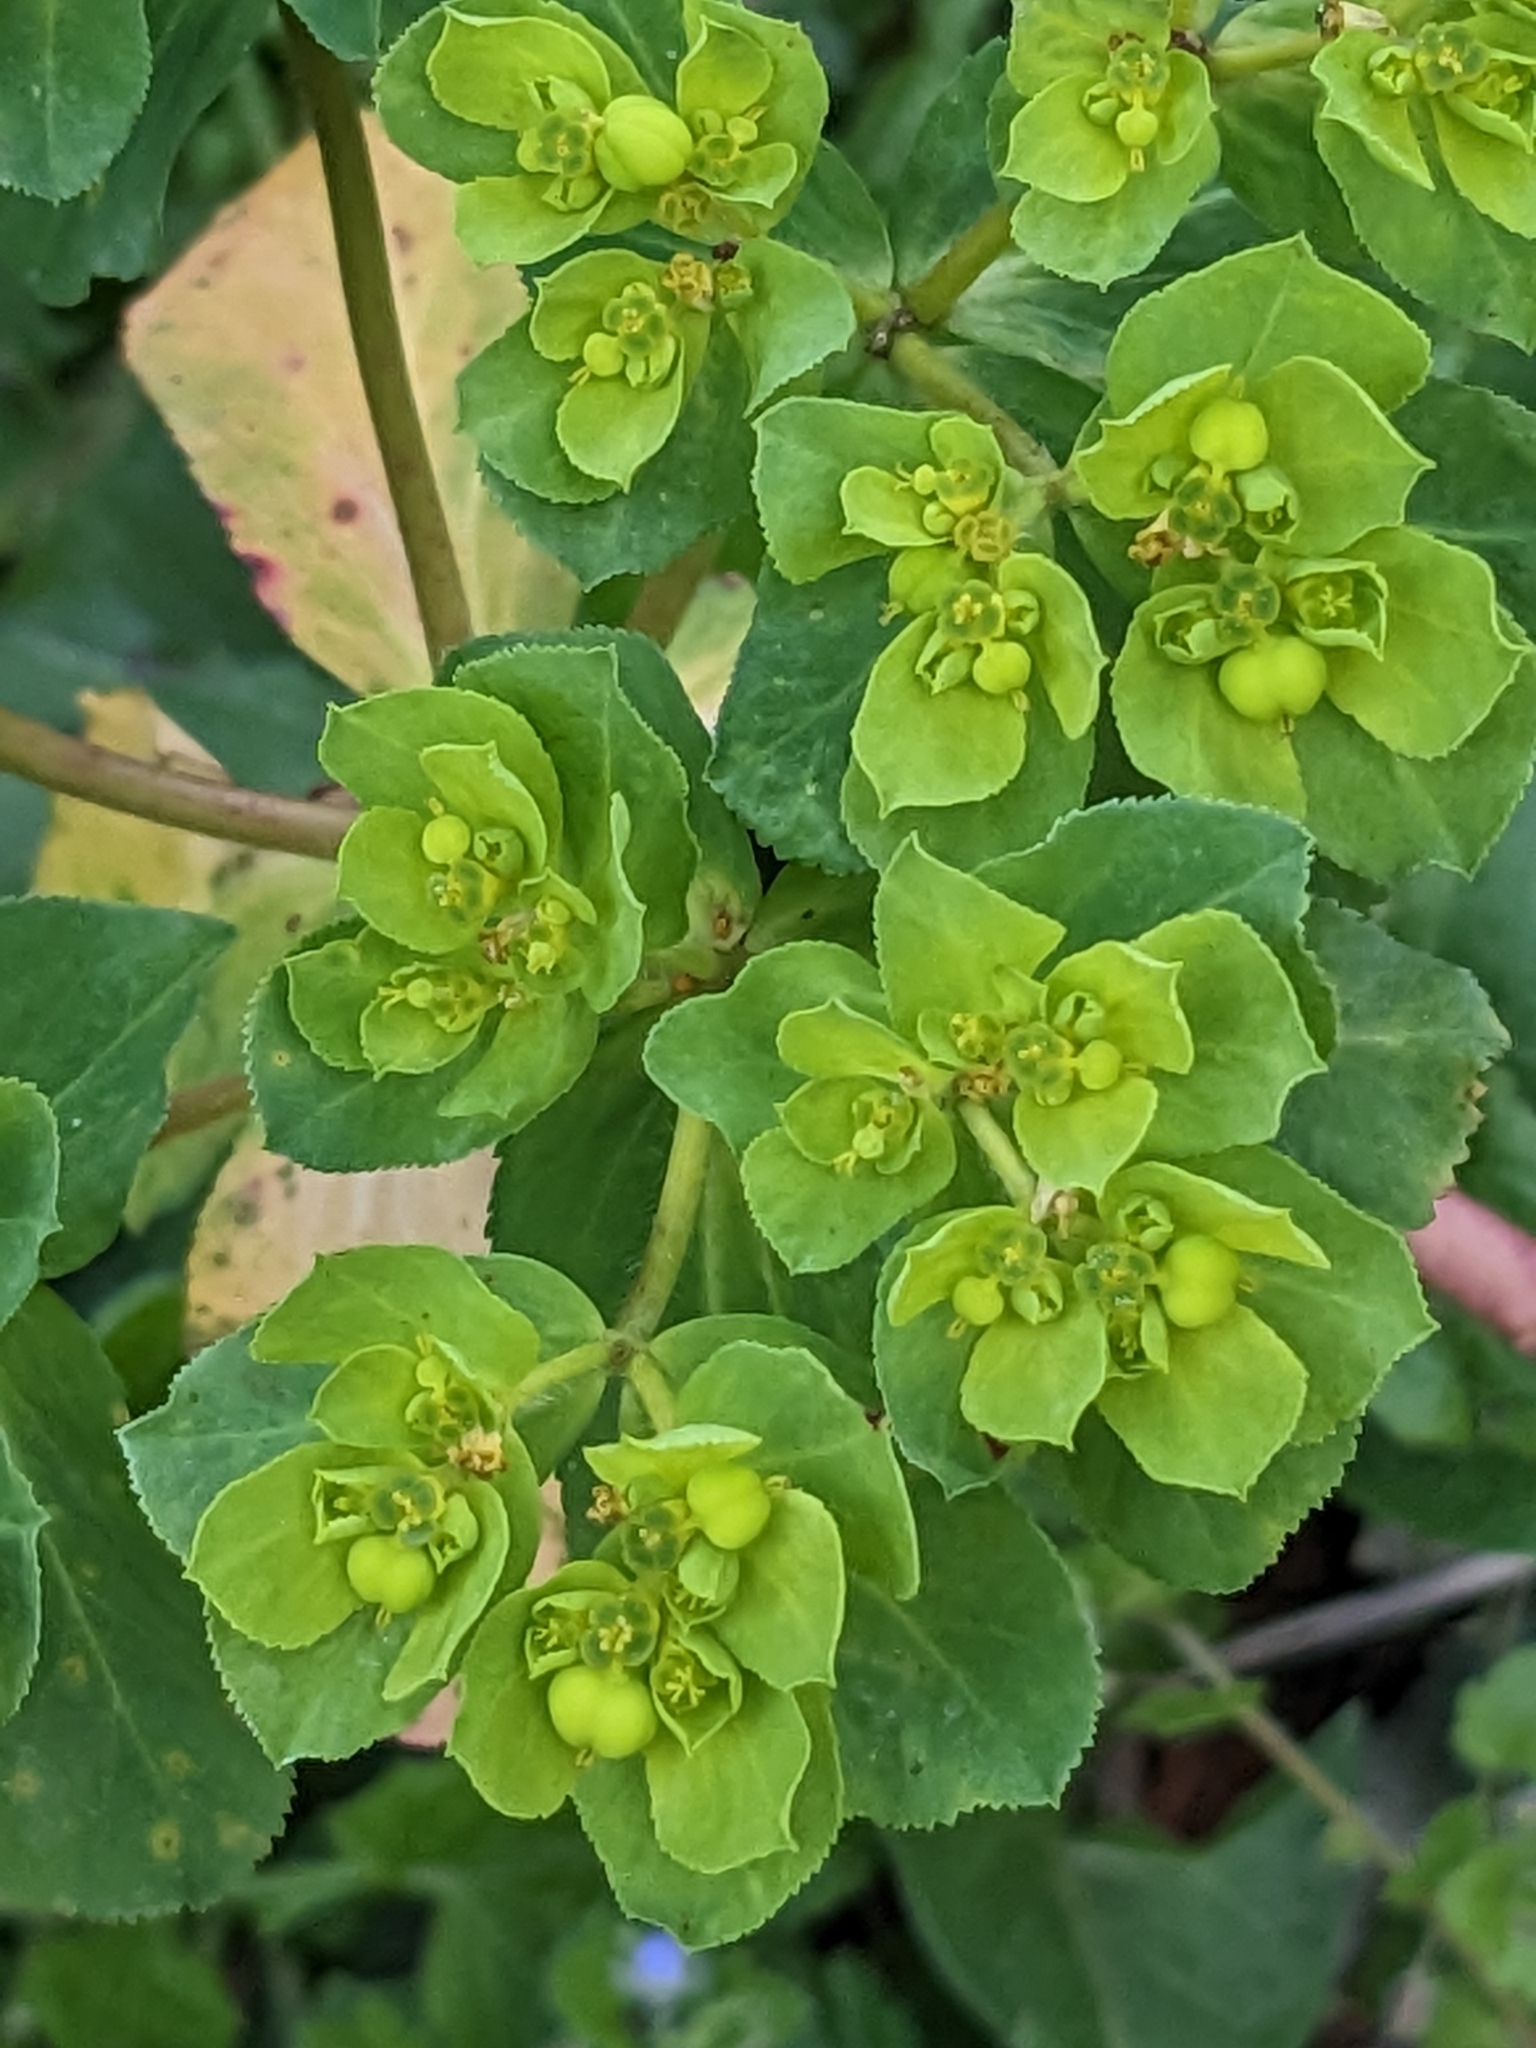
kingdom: Plantae
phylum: Tracheophyta
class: Magnoliopsida
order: Malpighiales
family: Euphorbiaceae
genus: Euphorbia
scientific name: Euphorbia helioscopia
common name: Sun spurge
